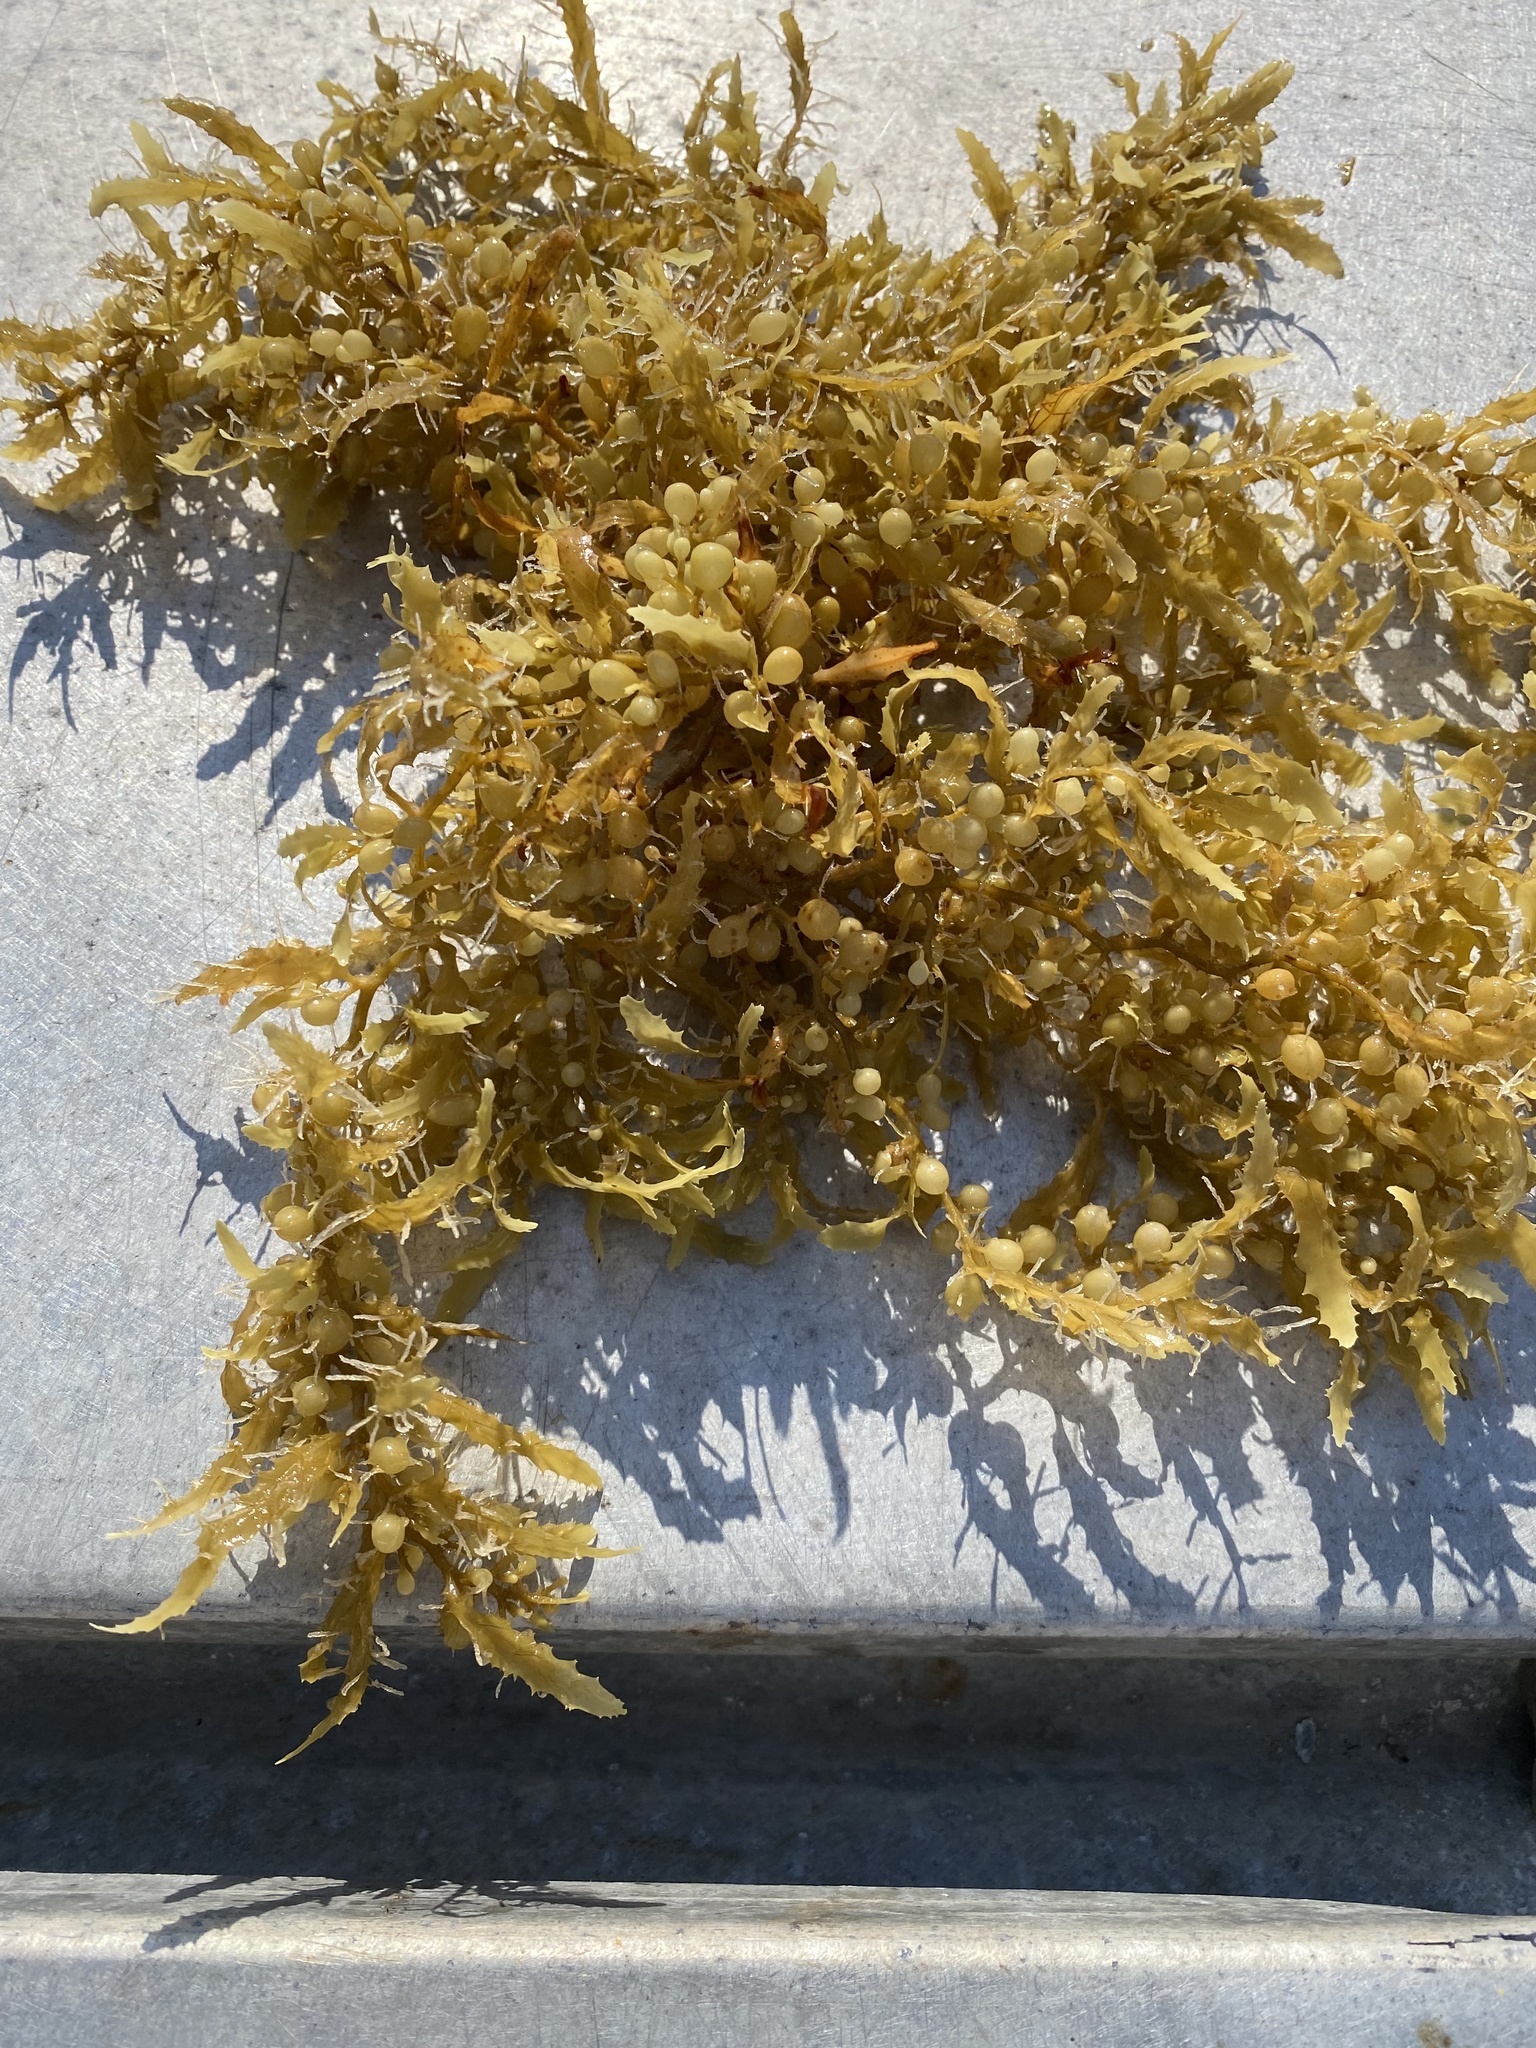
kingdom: Chromista
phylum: Ochrophyta
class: Phaeophyceae
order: Fucales
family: Sargassaceae
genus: Sargassum
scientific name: Sargassum fluitans
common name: Sargassum seaweed
